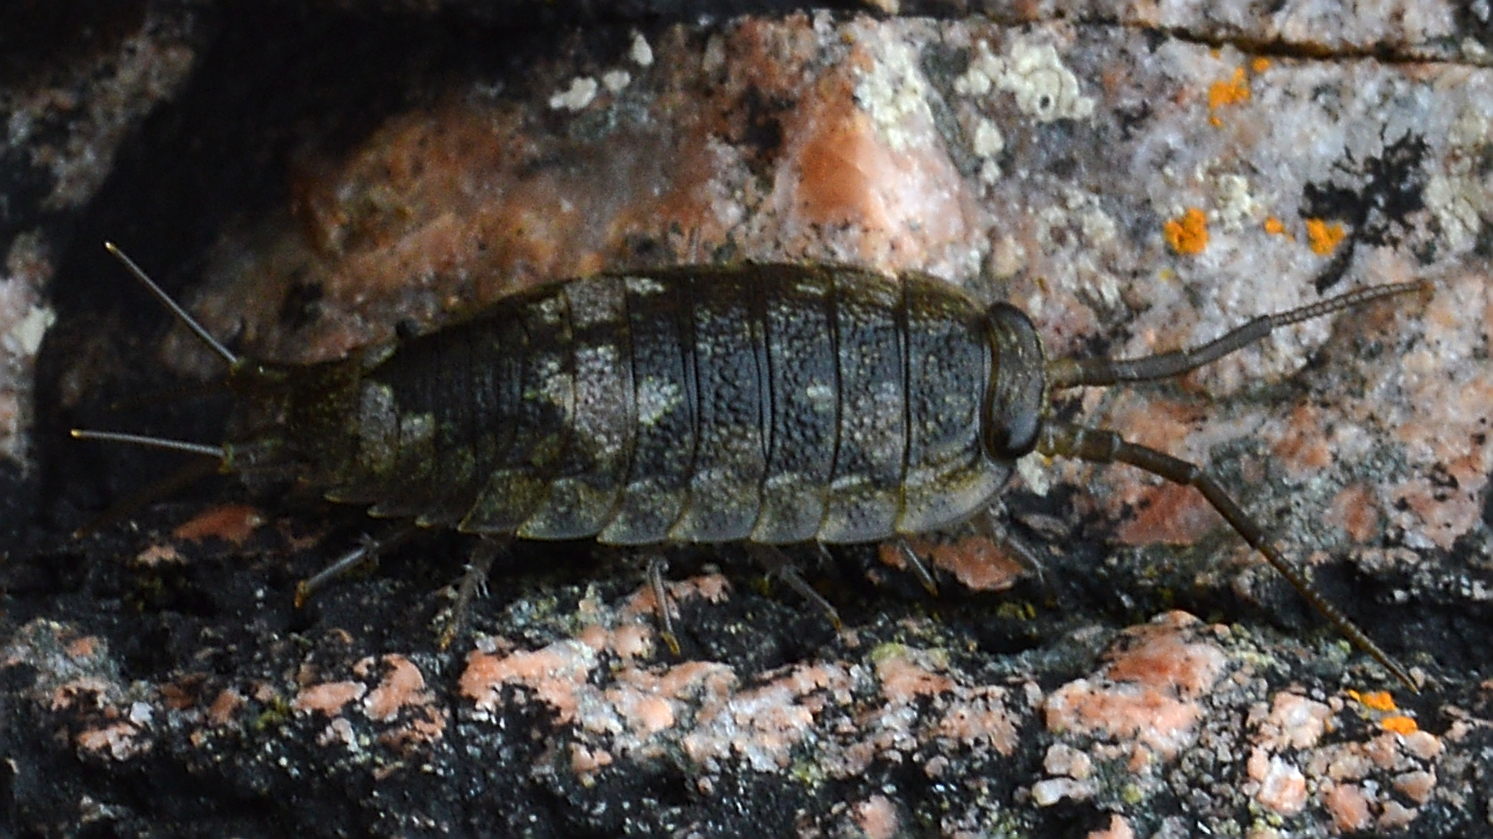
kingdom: Animalia
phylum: Arthropoda
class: Malacostraca
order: Isopoda
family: Ligiidae
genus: Ligia
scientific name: Ligia oceanica
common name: Sea slater
